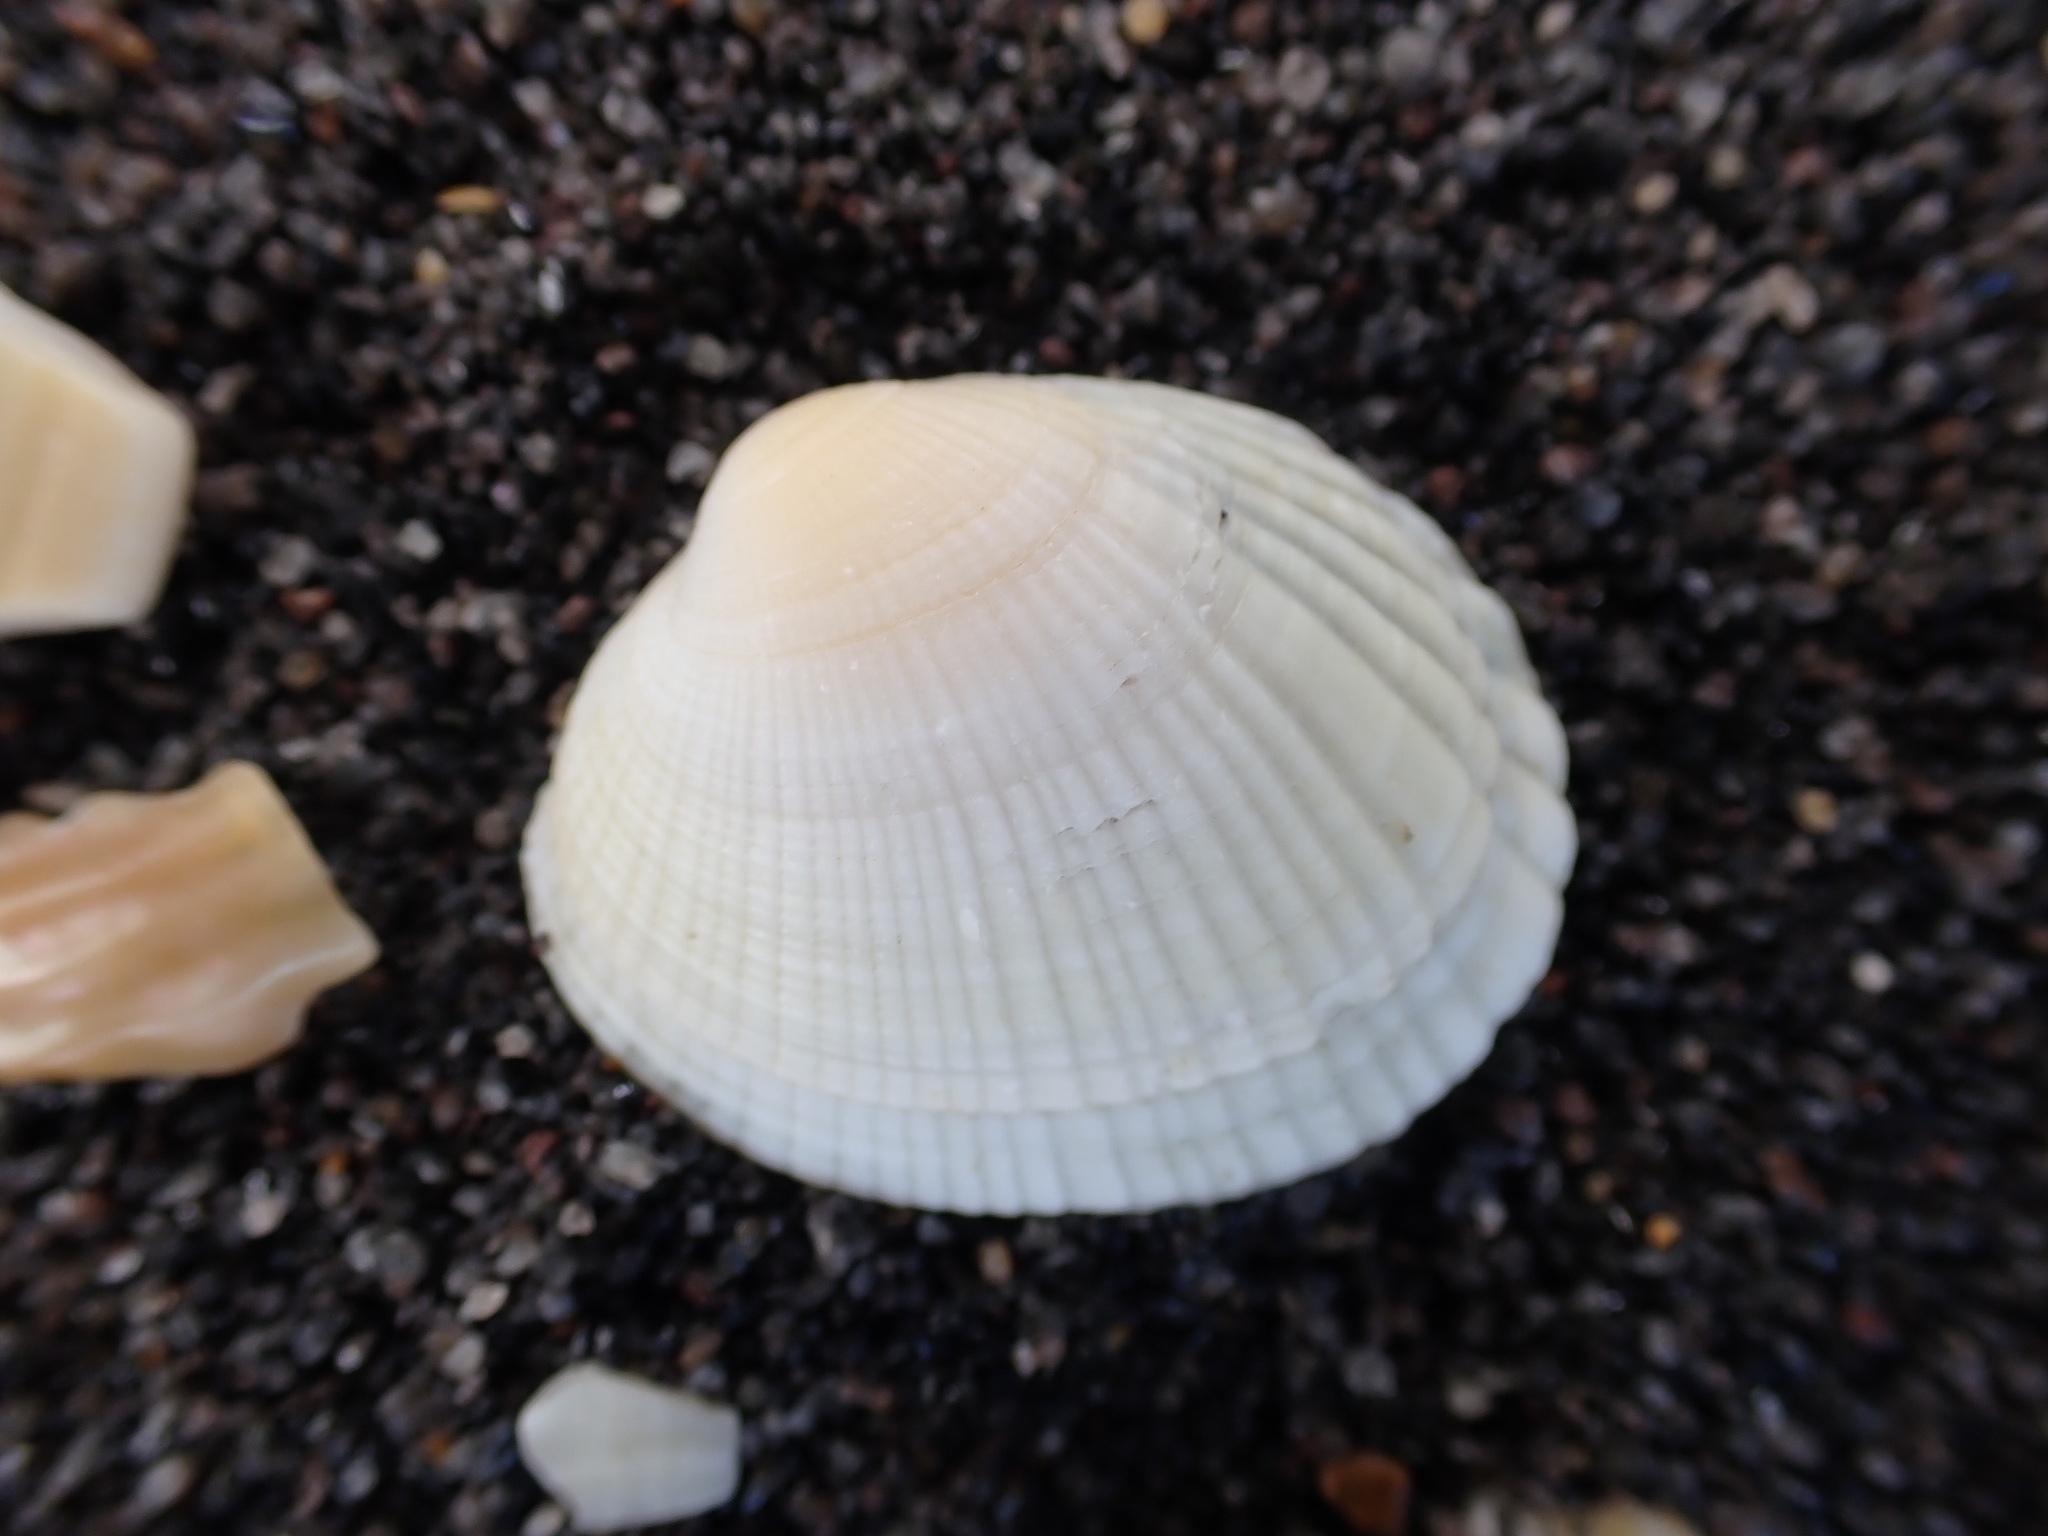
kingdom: Animalia
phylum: Mollusca
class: Bivalvia
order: Venerida
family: Veneridae
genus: Leukoma
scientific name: Leukoma crassicosta
